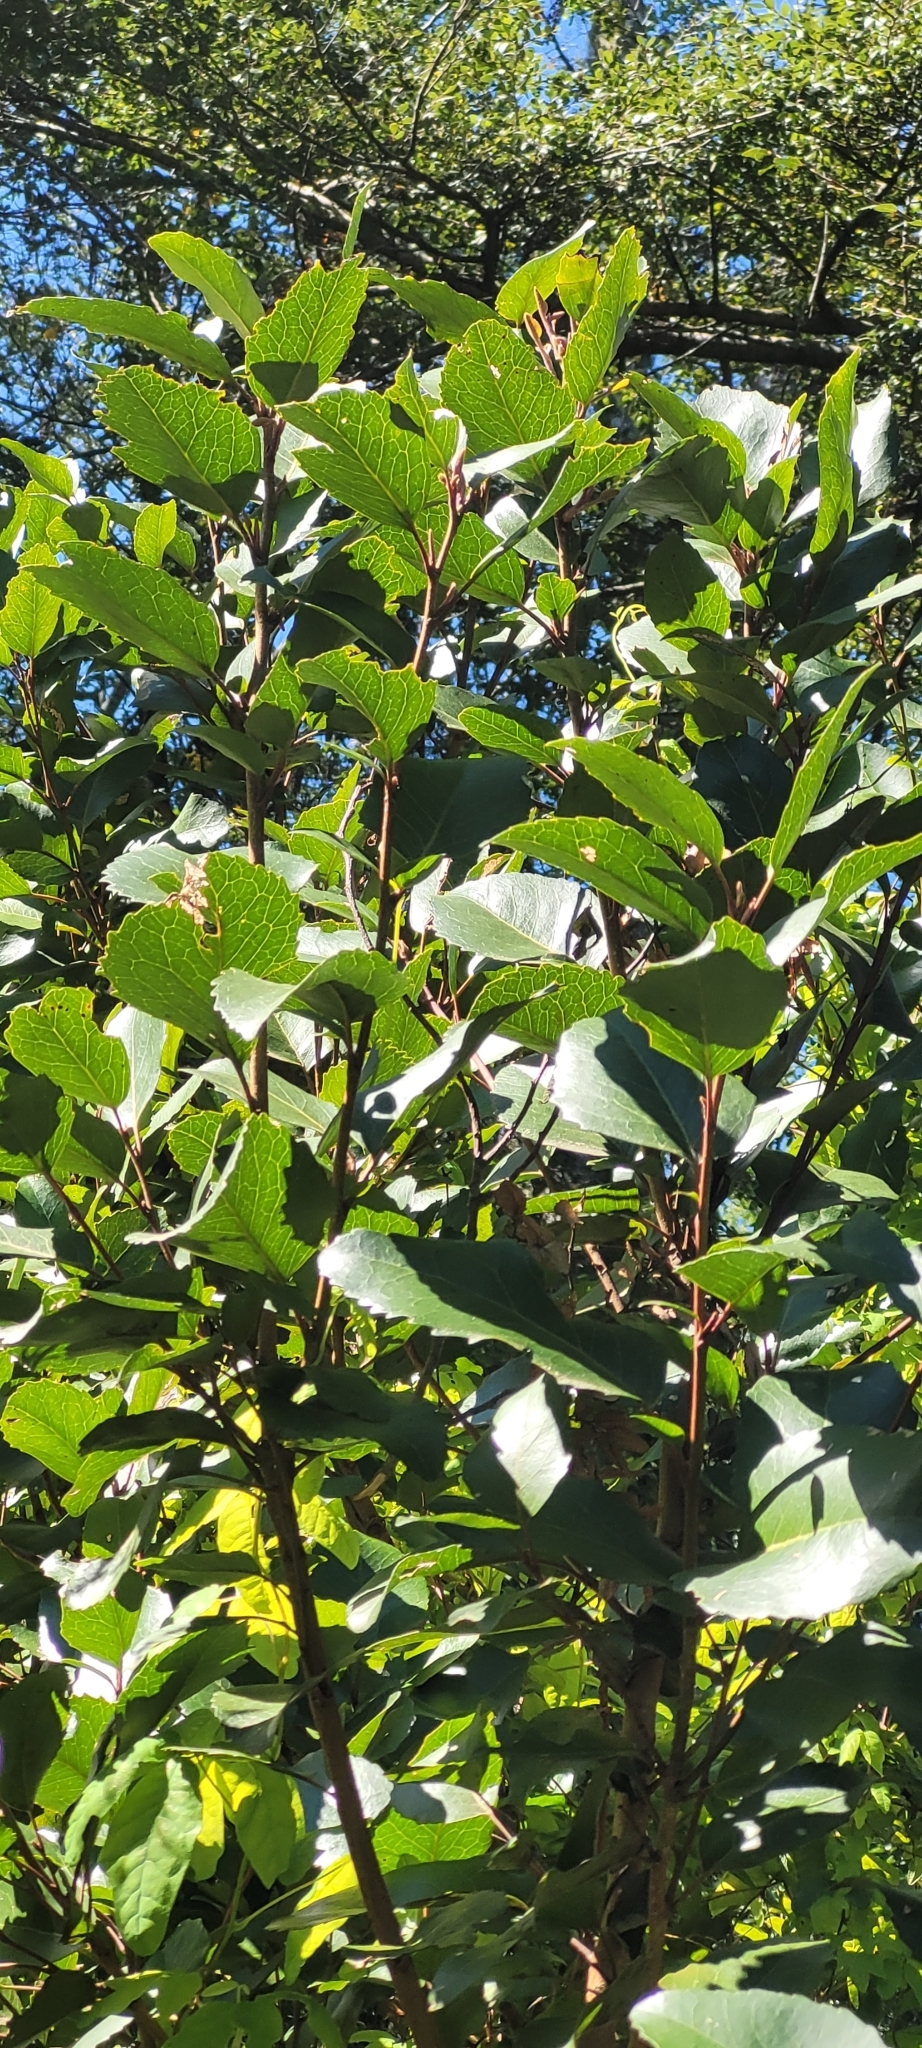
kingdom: Plantae
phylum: Tracheophyta
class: Magnoliopsida
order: Proteales
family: Proteaceae
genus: Lomatia
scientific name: Lomatia hirsuta
